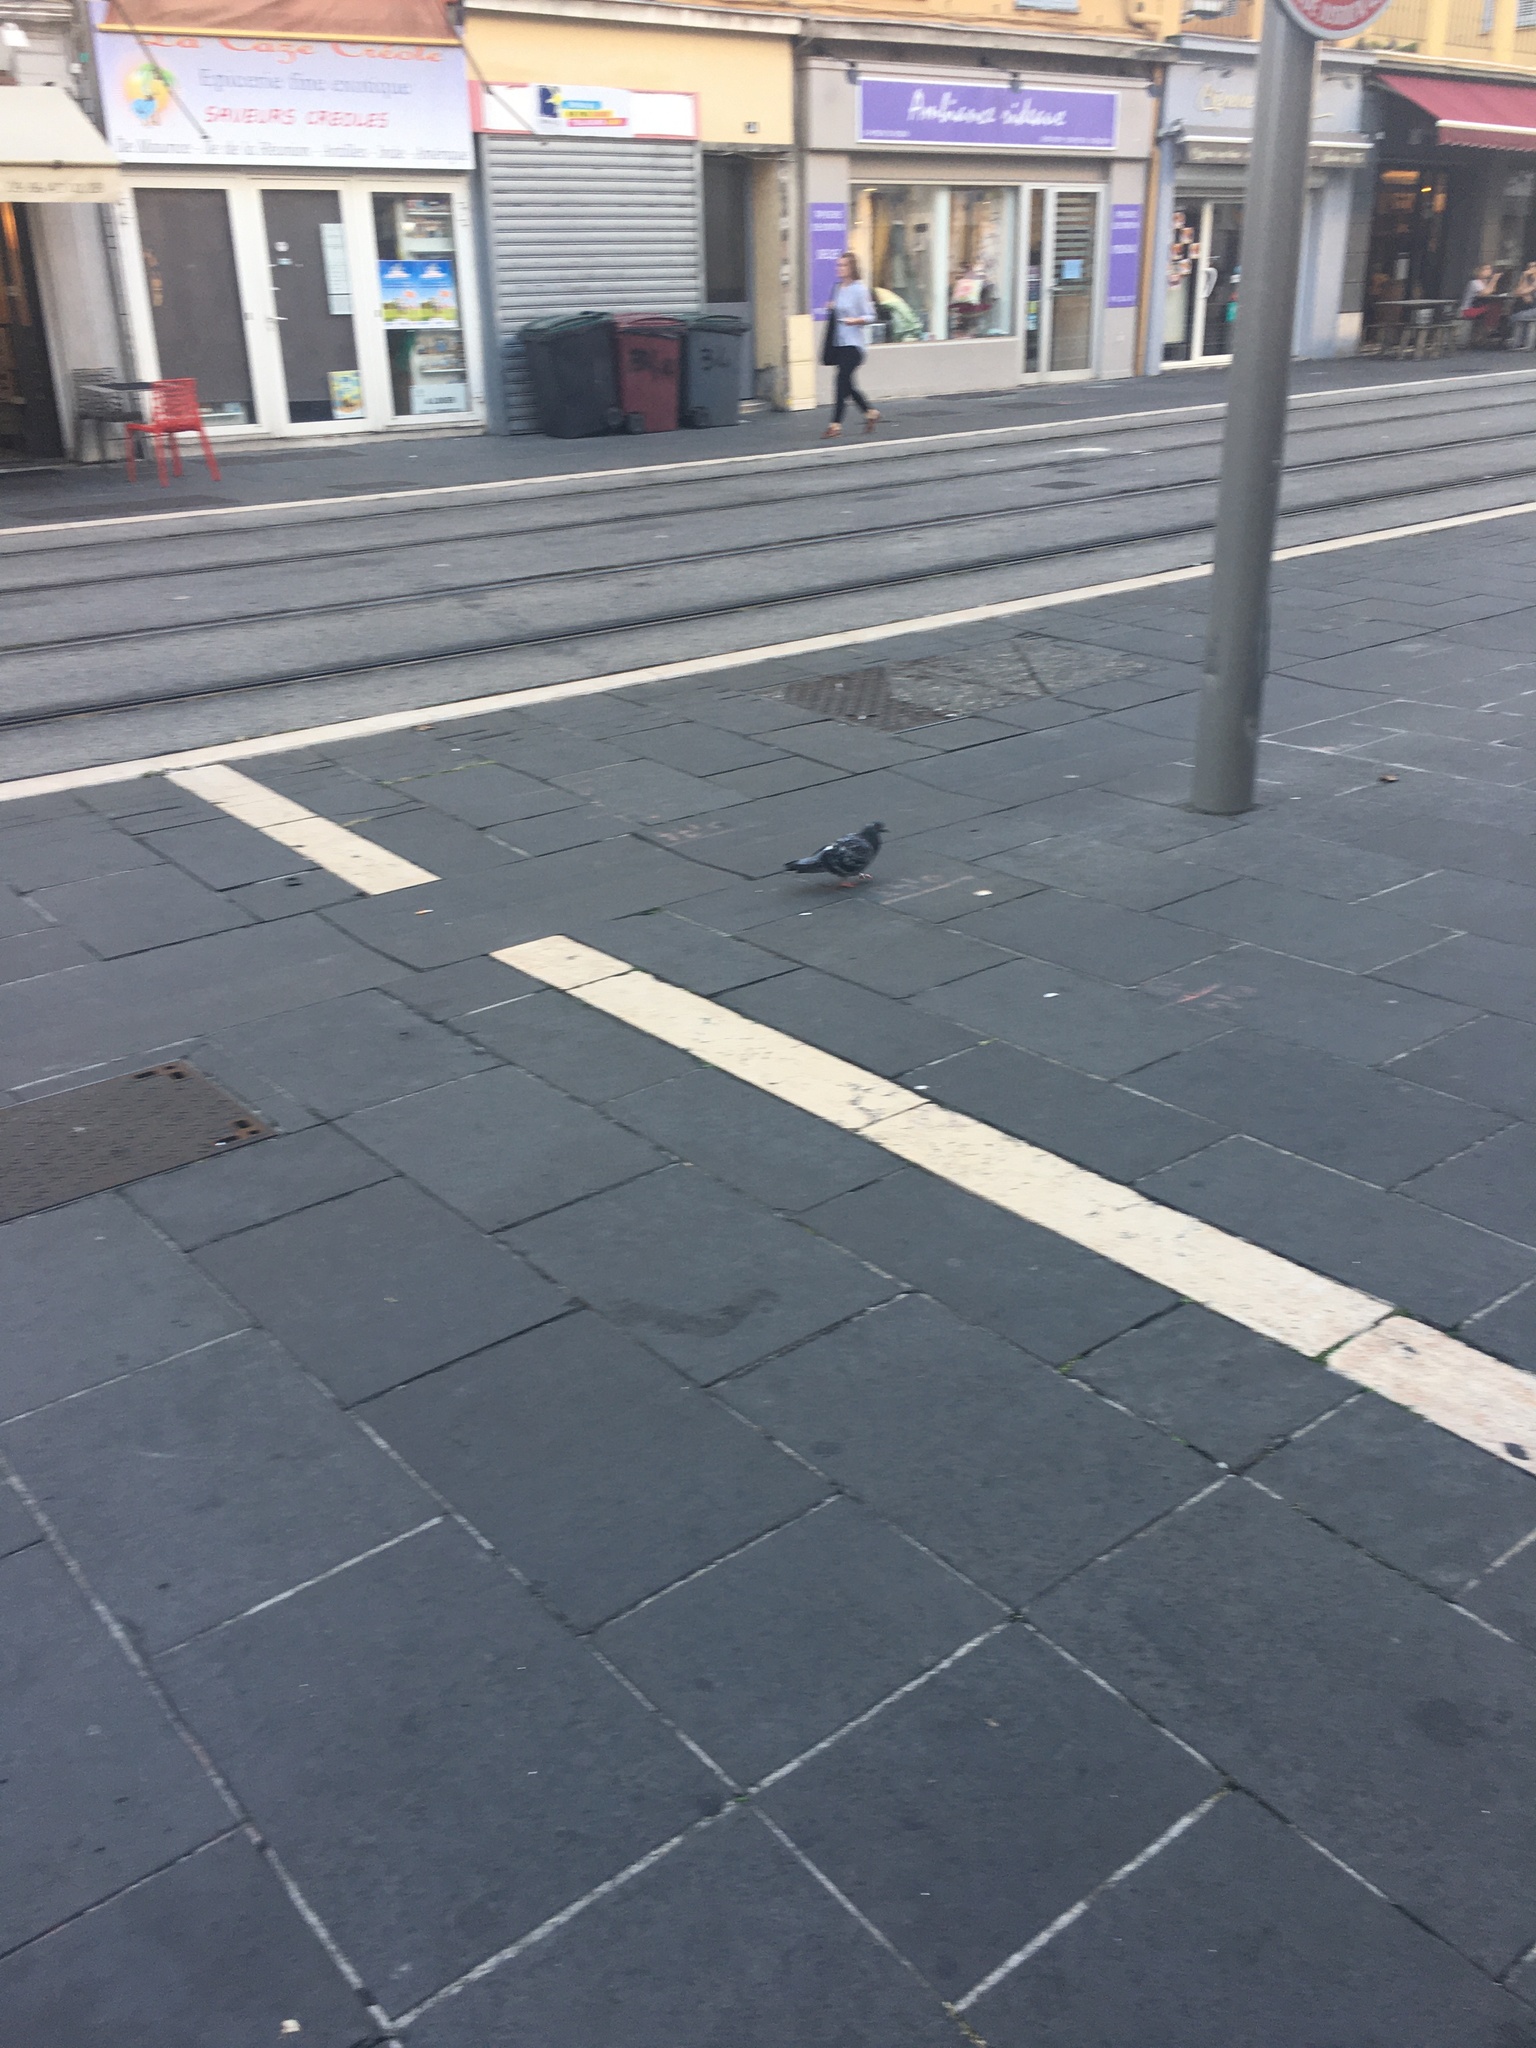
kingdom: Animalia
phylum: Chordata
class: Aves
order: Columbiformes
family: Columbidae
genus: Columba
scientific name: Columba livia
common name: Rock pigeon
